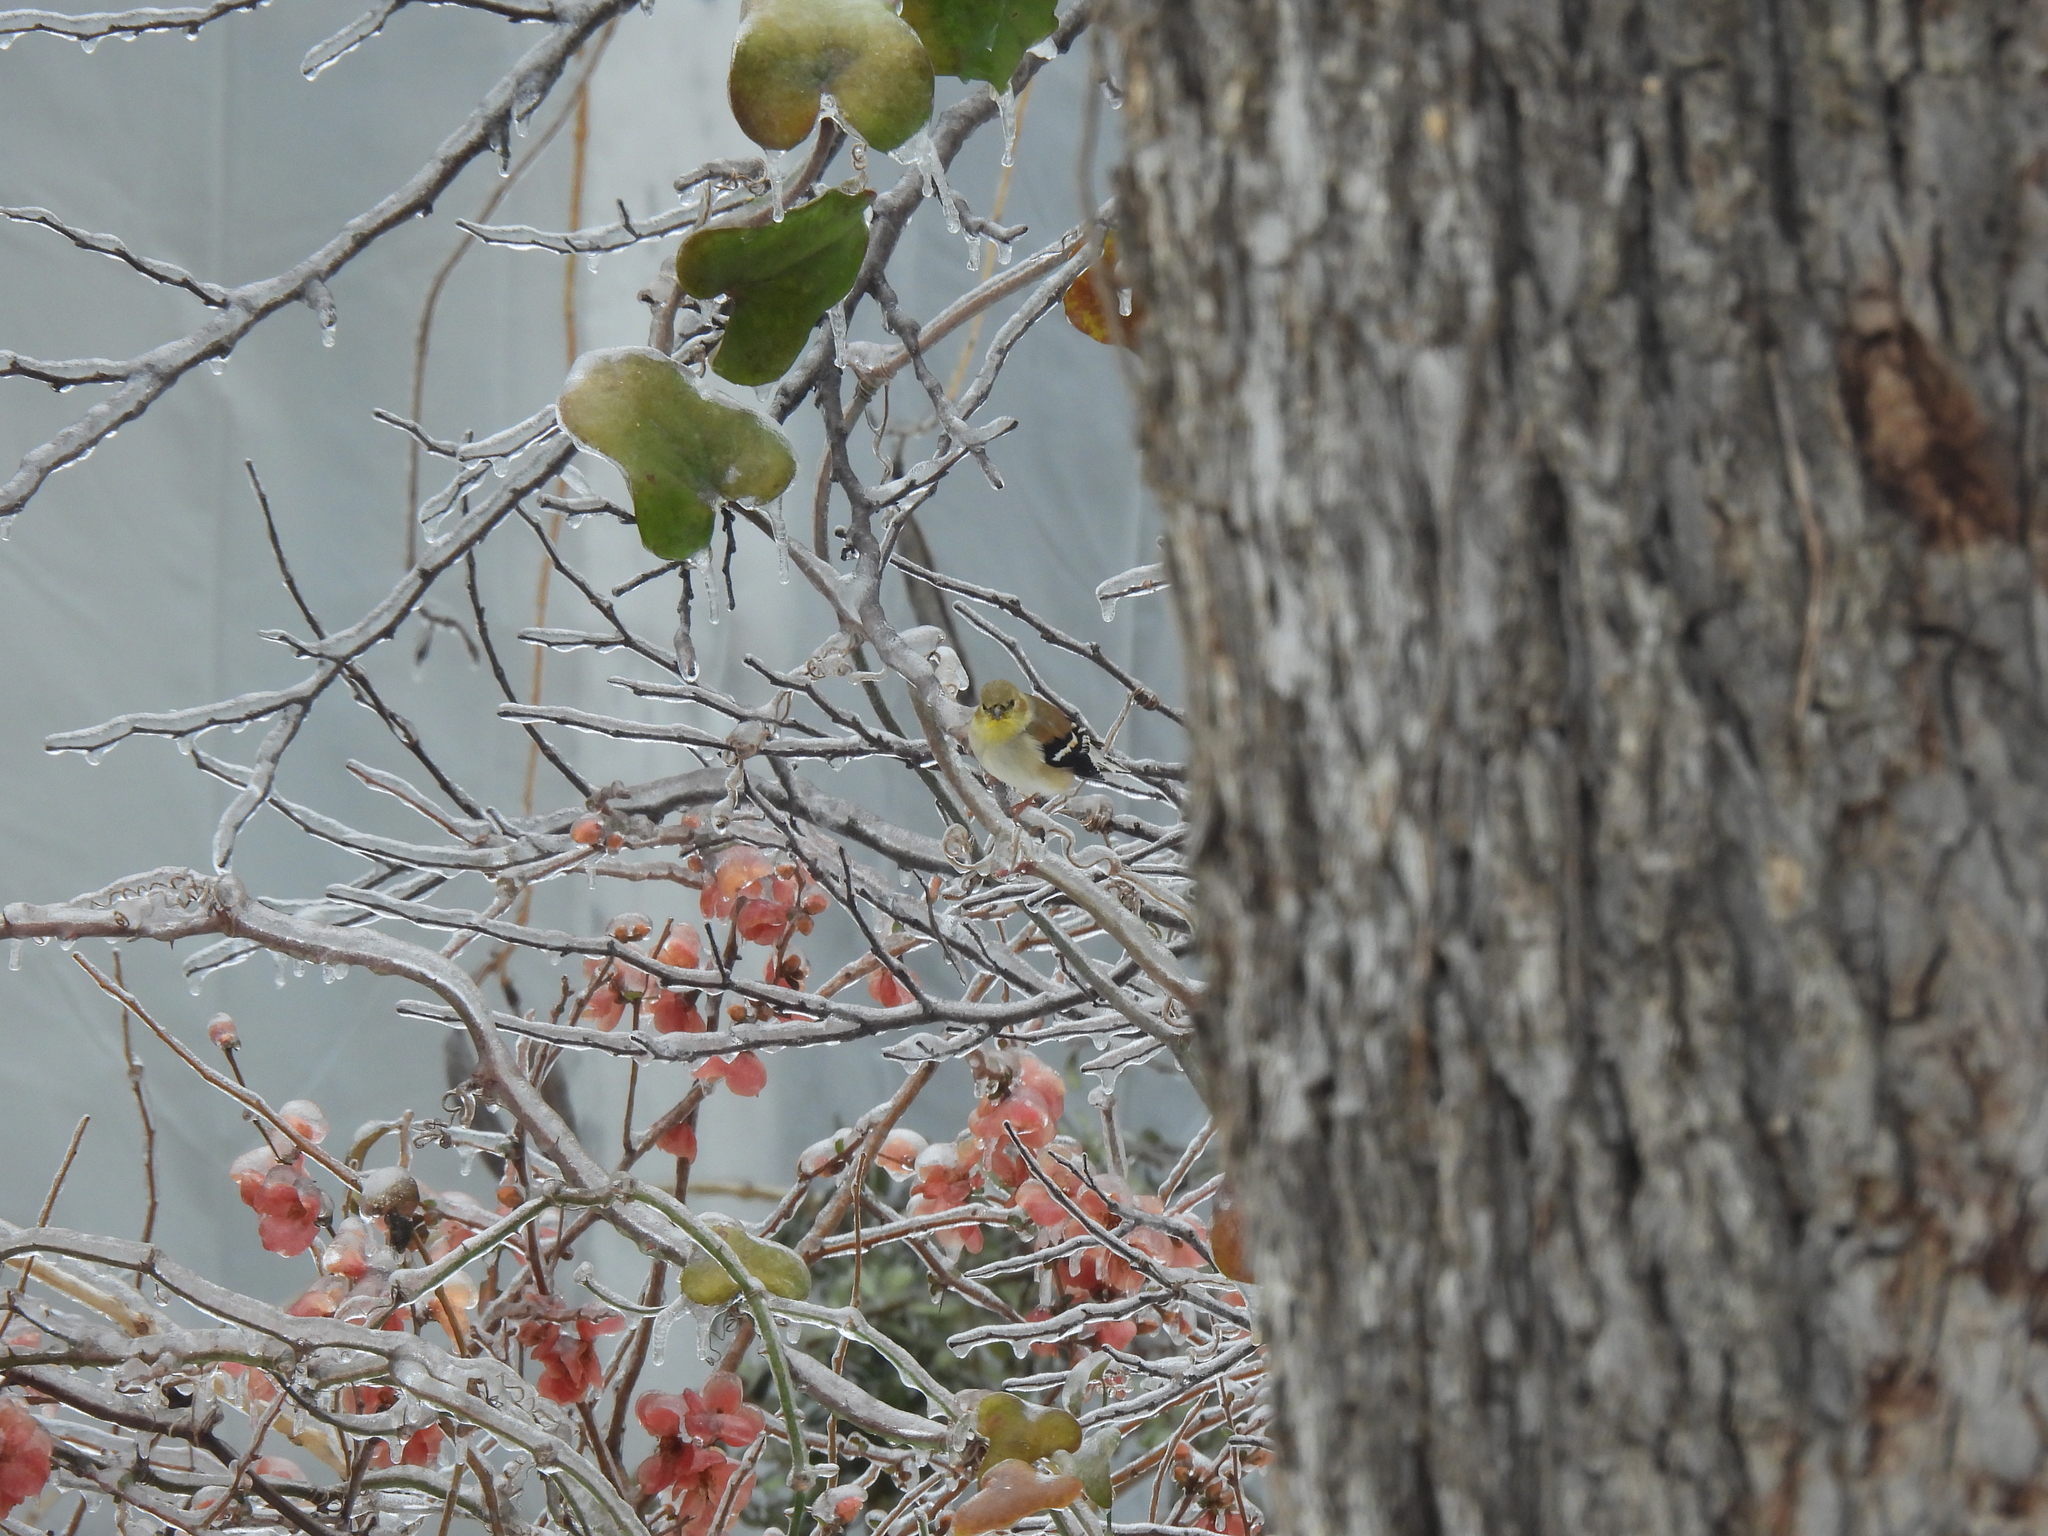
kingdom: Animalia
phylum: Chordata
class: Aves
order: Passeriformes
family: Fringillidae
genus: Spinus
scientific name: Spinus tristis
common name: American goldfinch
